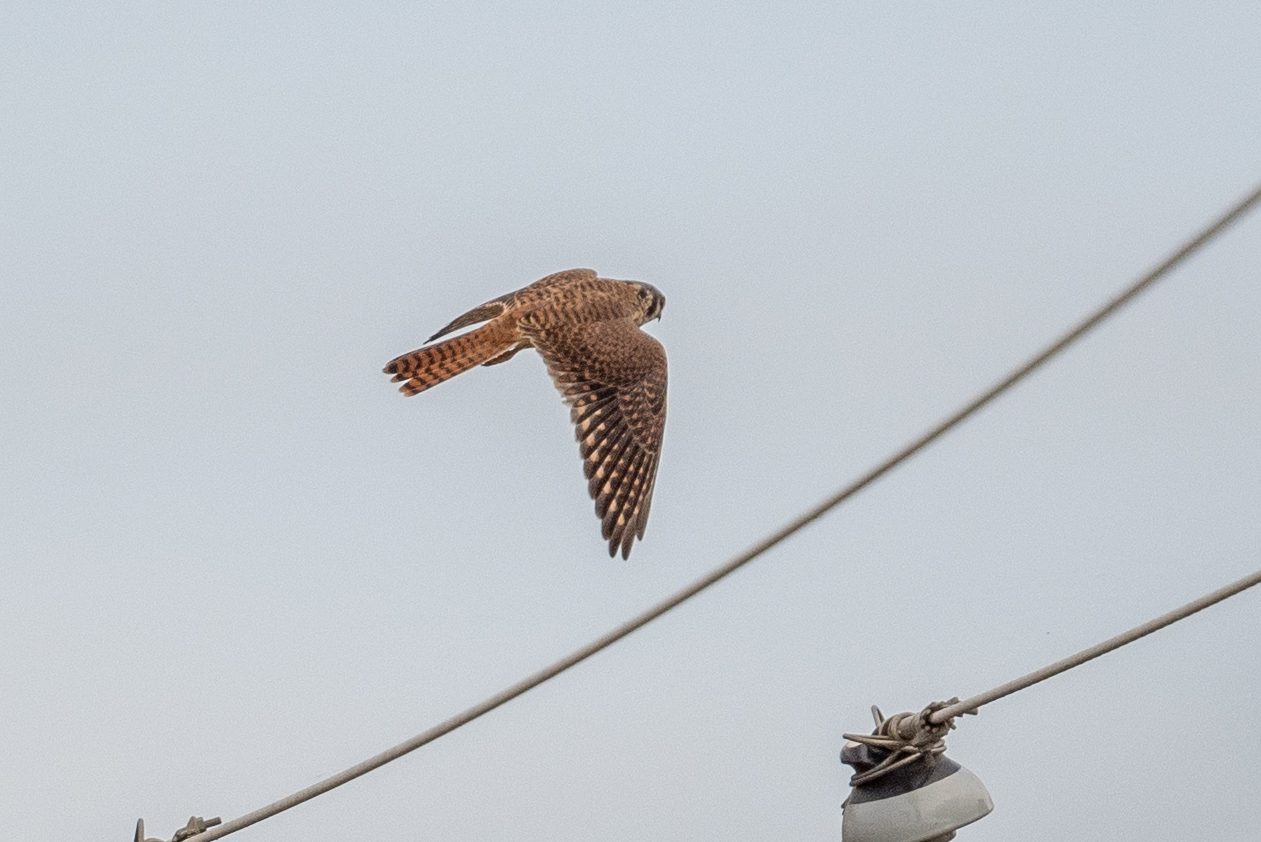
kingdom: Animalia
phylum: Chordata
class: Aves
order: Falconiformes
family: Falconidae
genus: Falco
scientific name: Falco sparverius
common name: American kestrel
